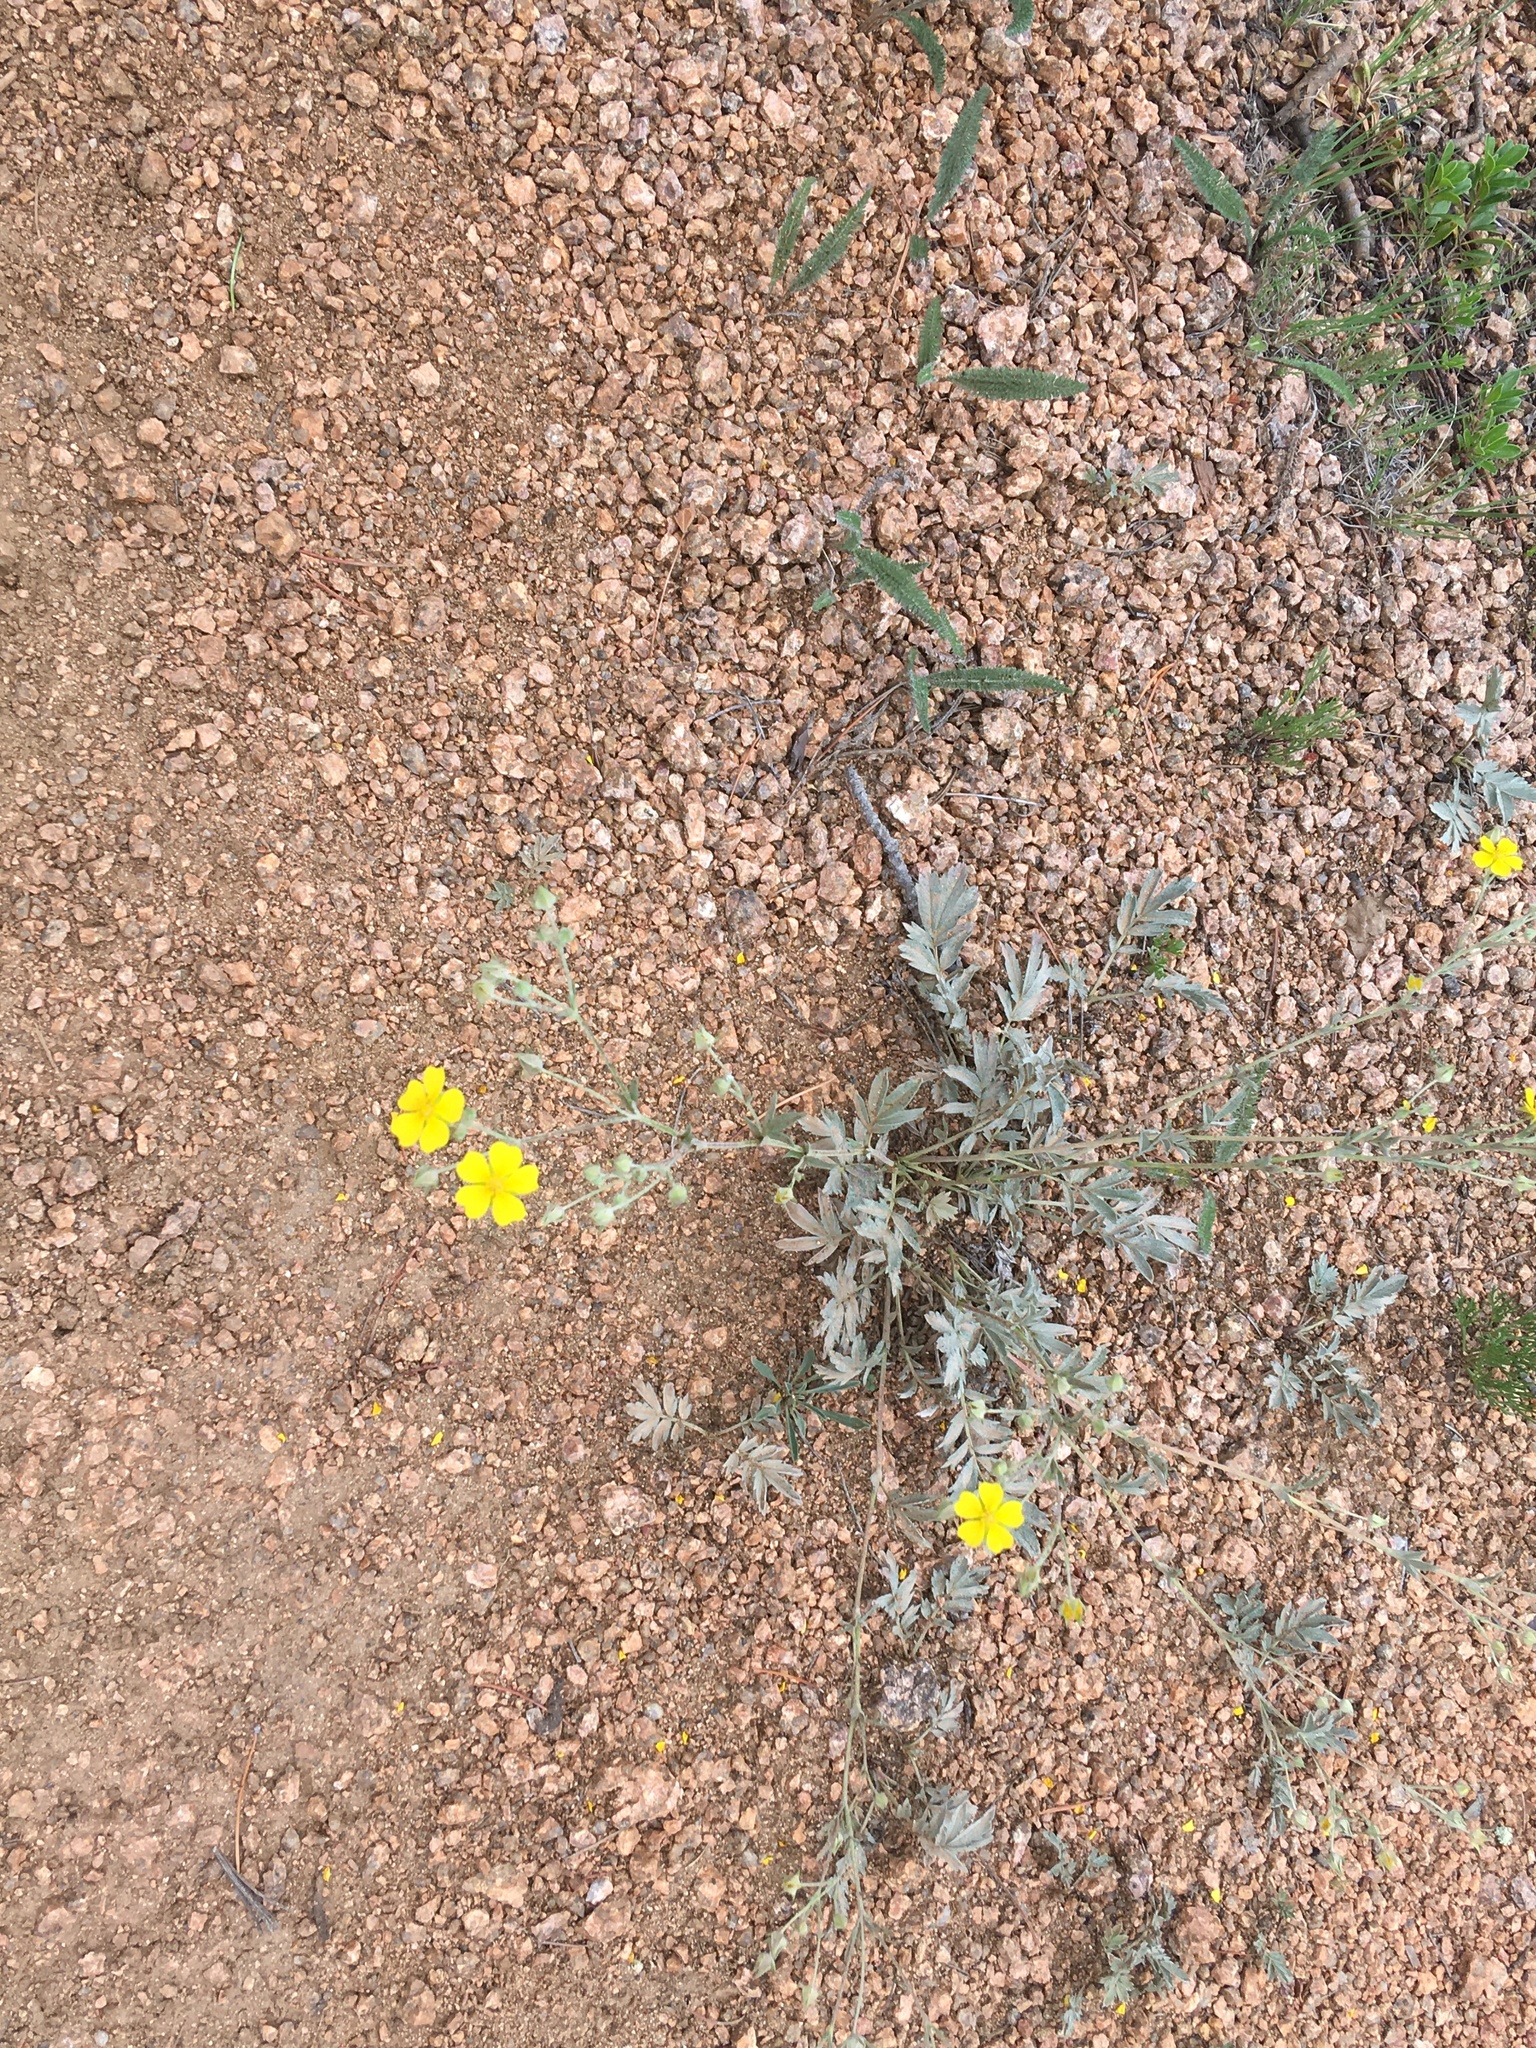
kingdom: Plantae
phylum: Tracheophyta
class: Magnoliopsida
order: Rosales
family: Rosaceae
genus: Potentilla
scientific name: Potentilla hippiana
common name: Woolly cinquefoil
